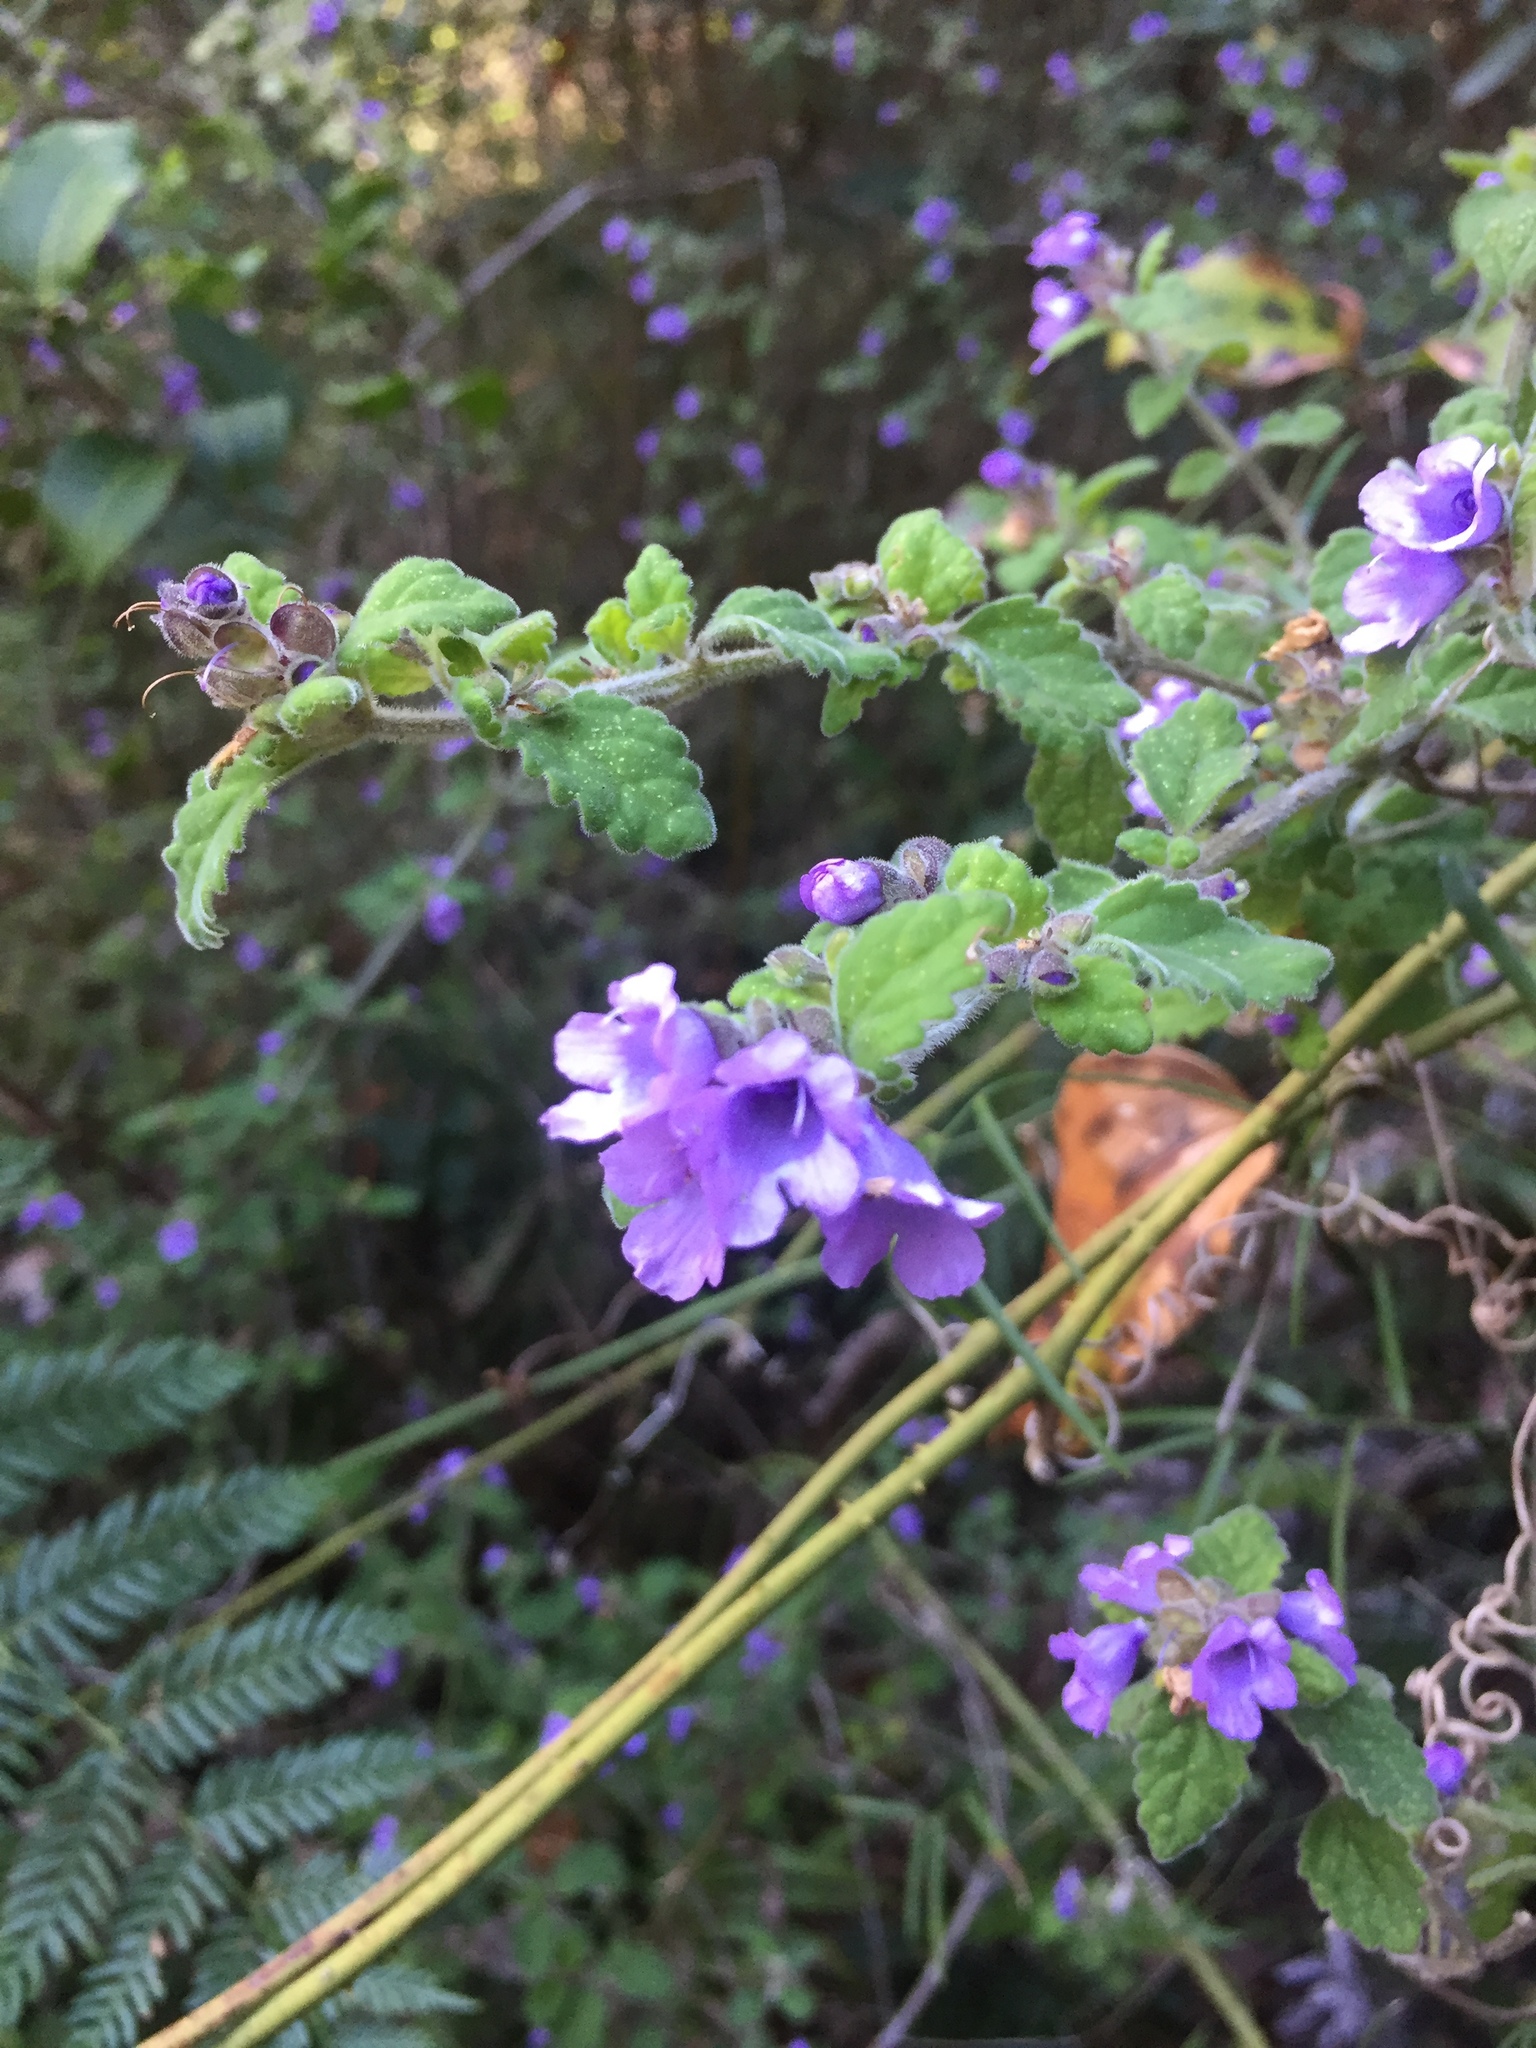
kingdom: Plantae
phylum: Tracheophyta
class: Magnoliopsida
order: Lamiales
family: Lamiaceae
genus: Prostanthera
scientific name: Prostanthera incana
